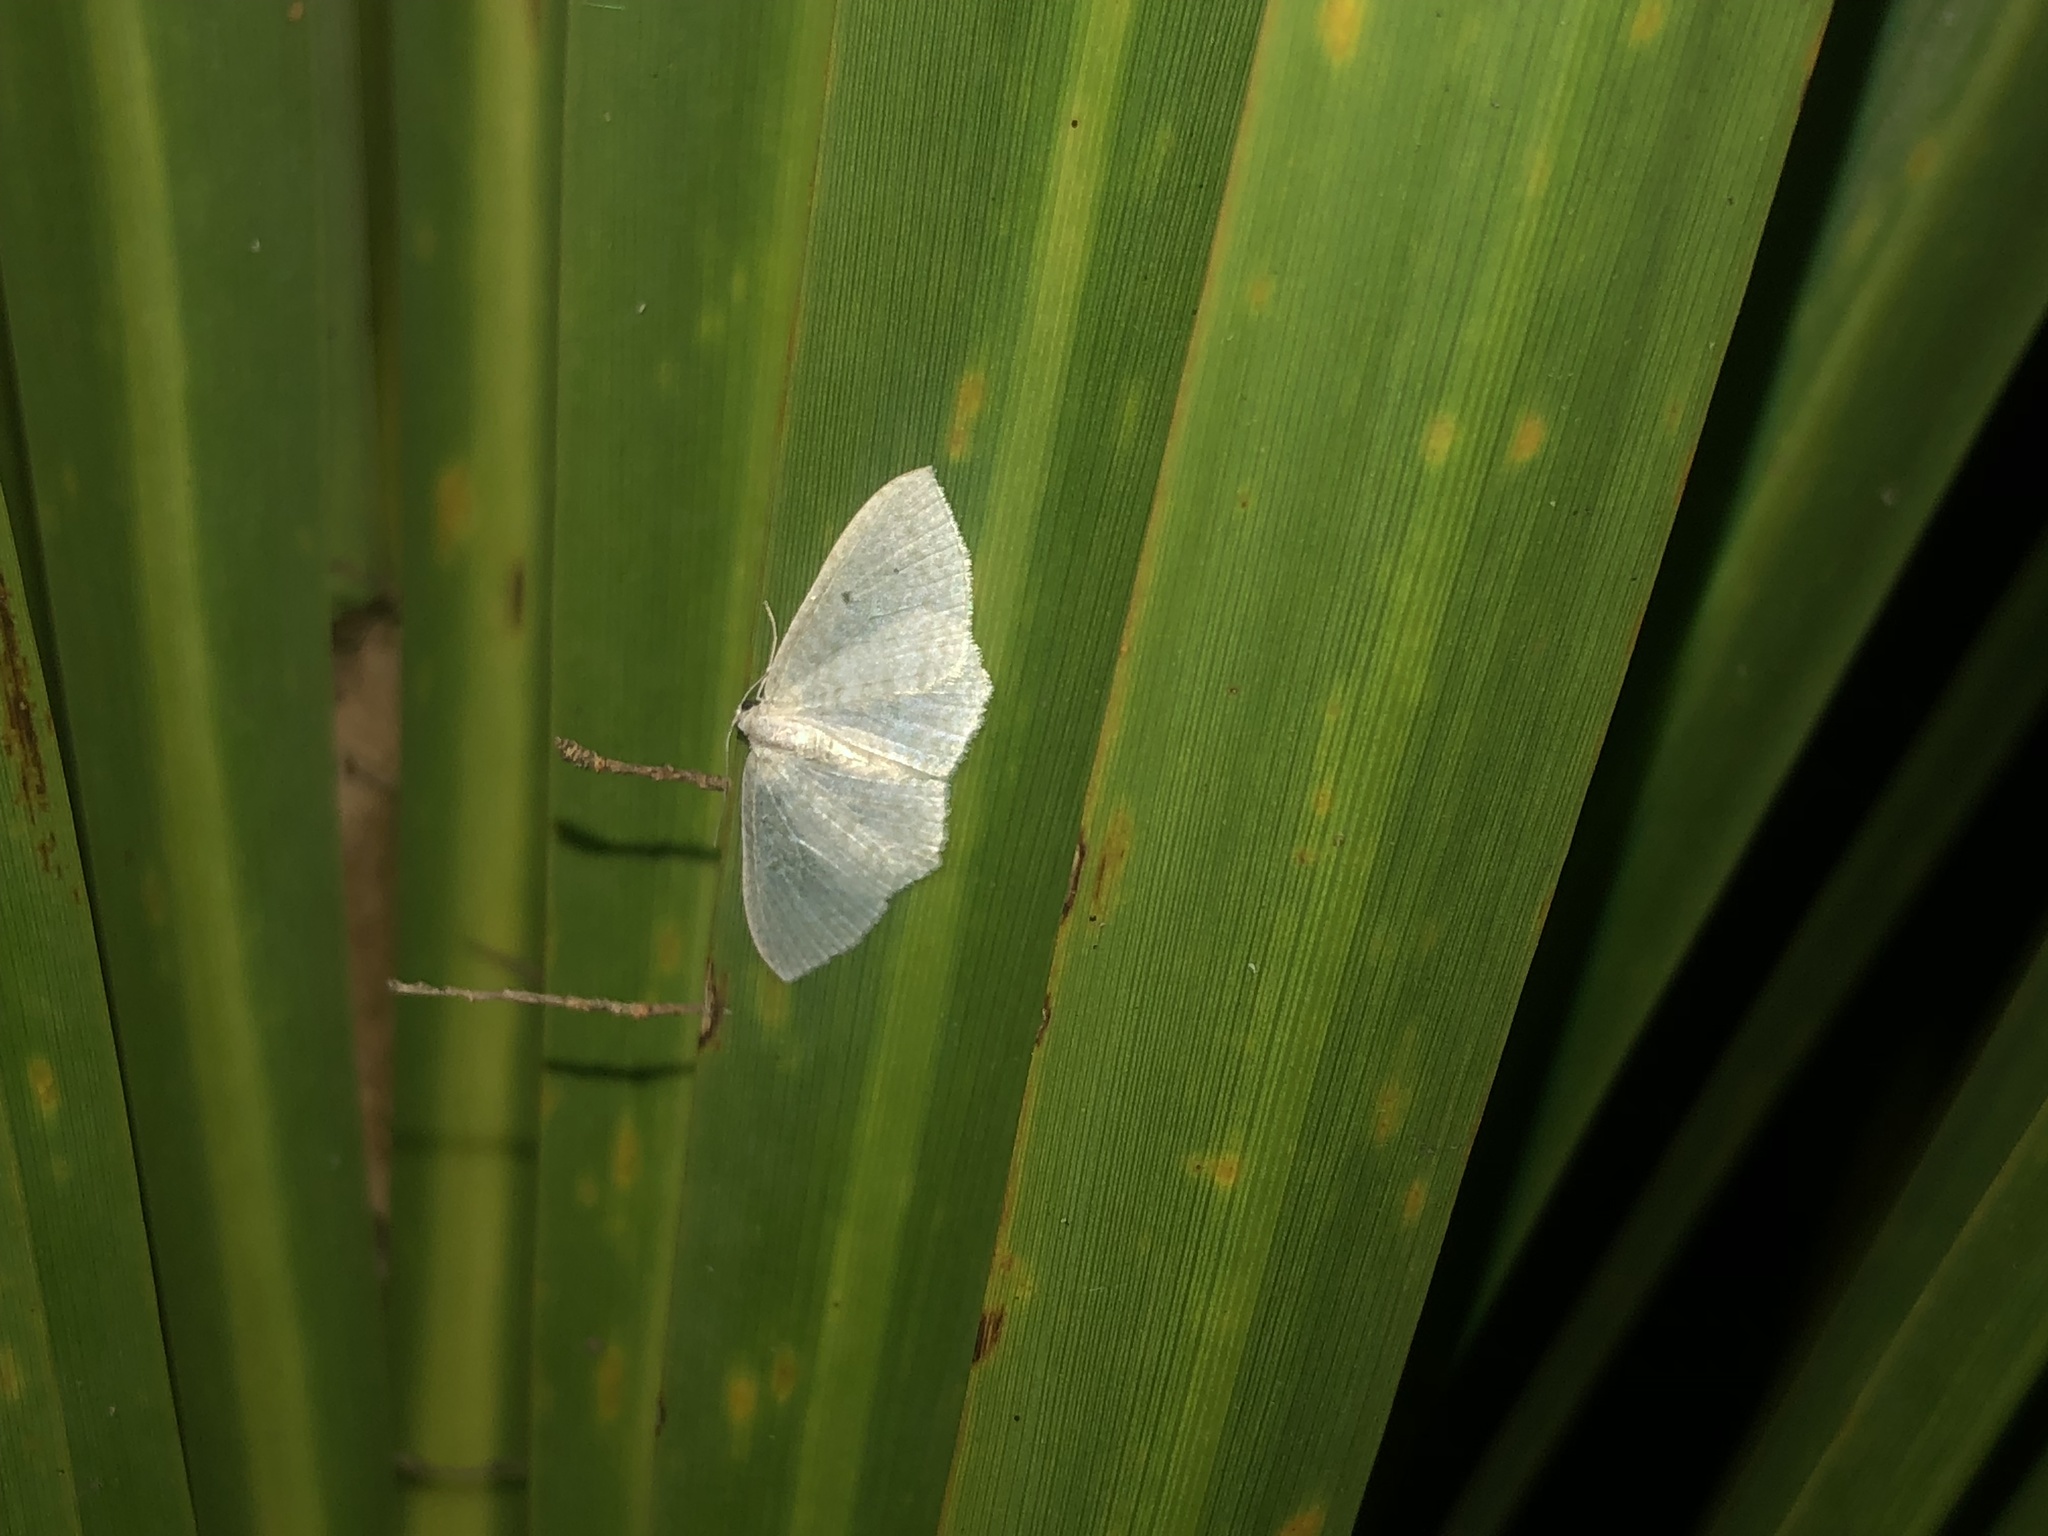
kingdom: Animalia
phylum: Arthropoda
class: Insecta
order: Lepidoptera
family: Geometridae
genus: Poecilasthena
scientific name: Poecilasthena pulchraria
